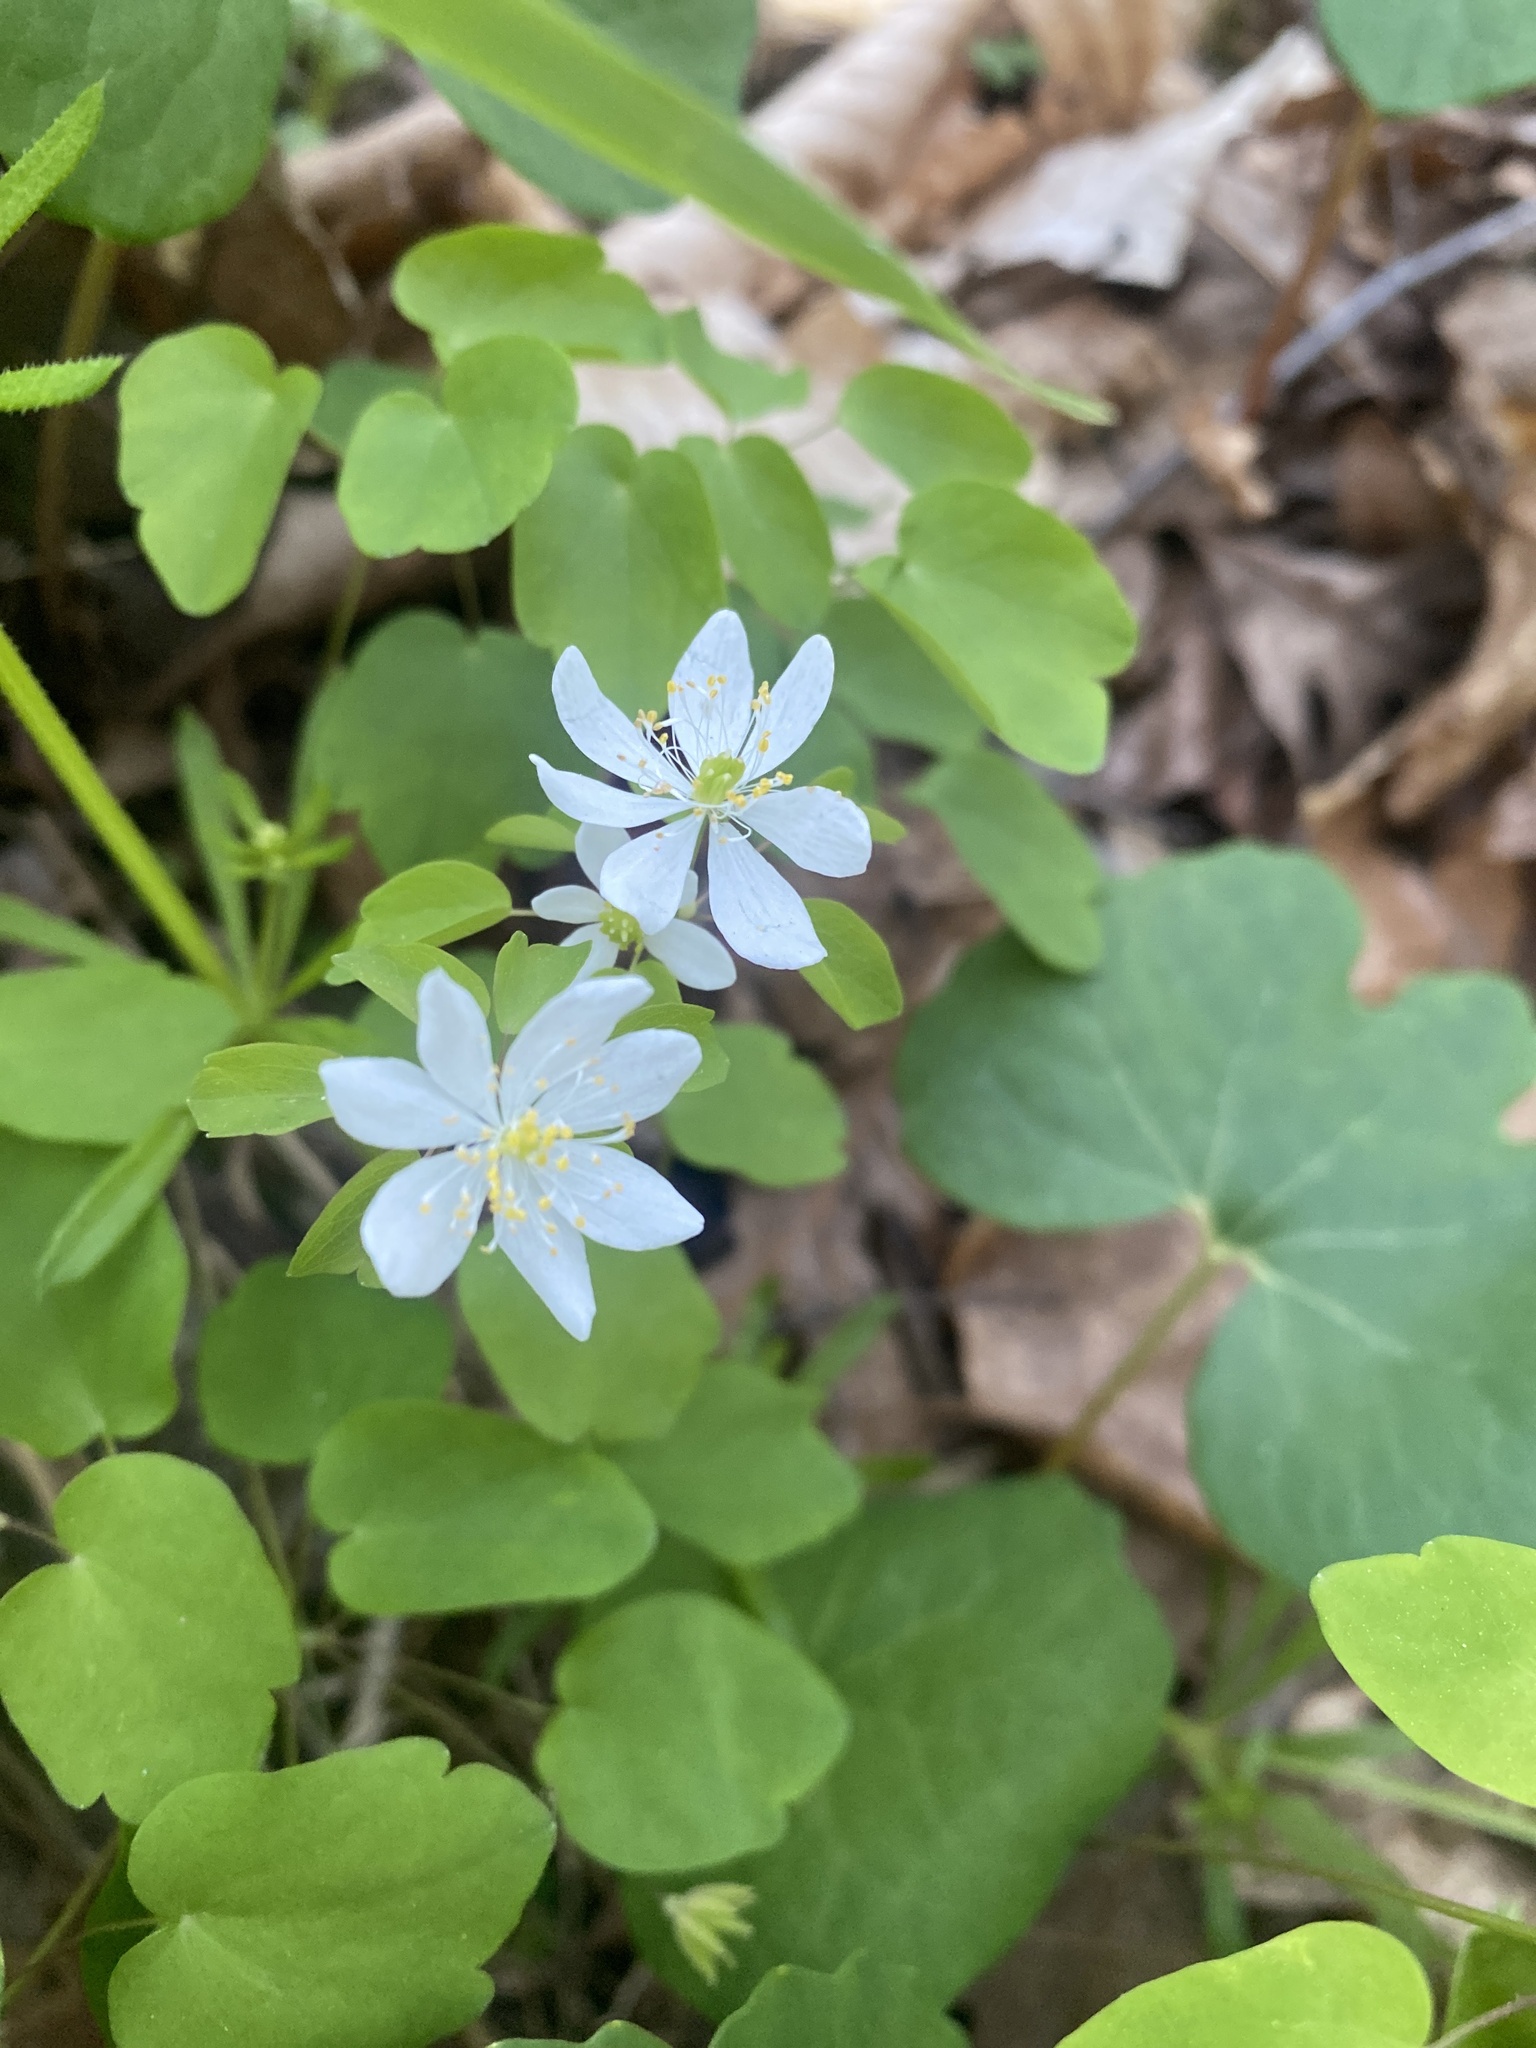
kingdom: Plantae
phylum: Tracheophyta
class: Magnoliopsida
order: Ranunculales
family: Ranunculaceae
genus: Thalictrum
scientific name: Thalictrum thalictroides
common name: Rue-anemone
